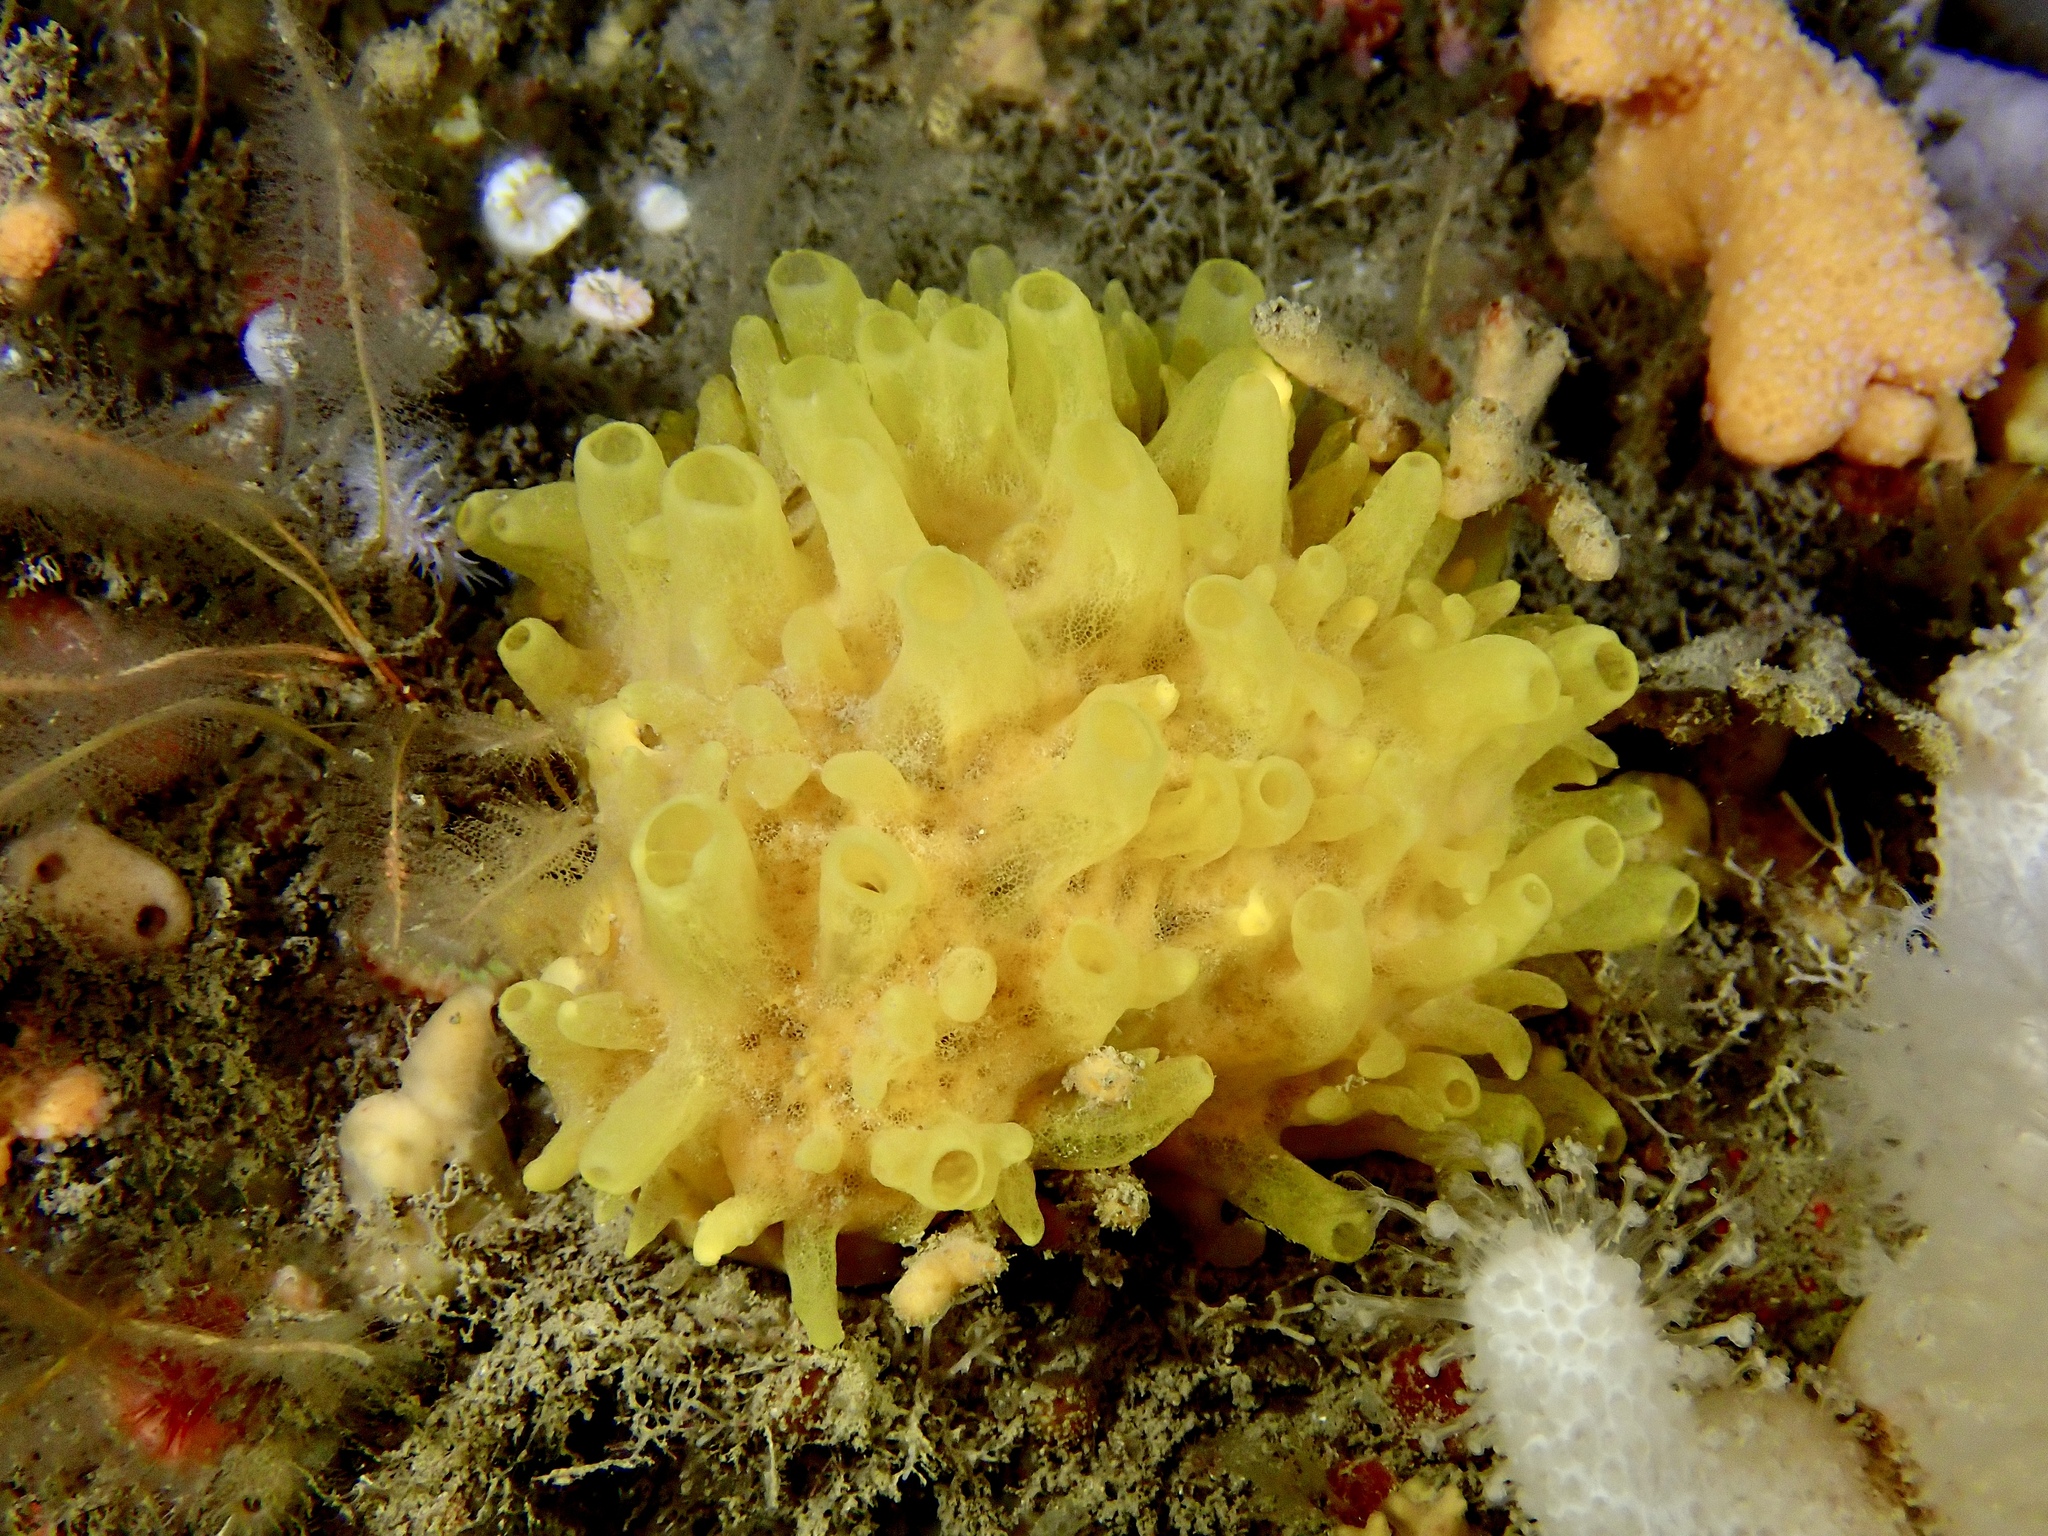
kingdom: Animalia
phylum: Porifera
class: Demospongiae
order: Polymastiida
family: Polymastiidae
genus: Polymastia
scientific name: Polymastia boletiformis
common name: Massive horny sponge
